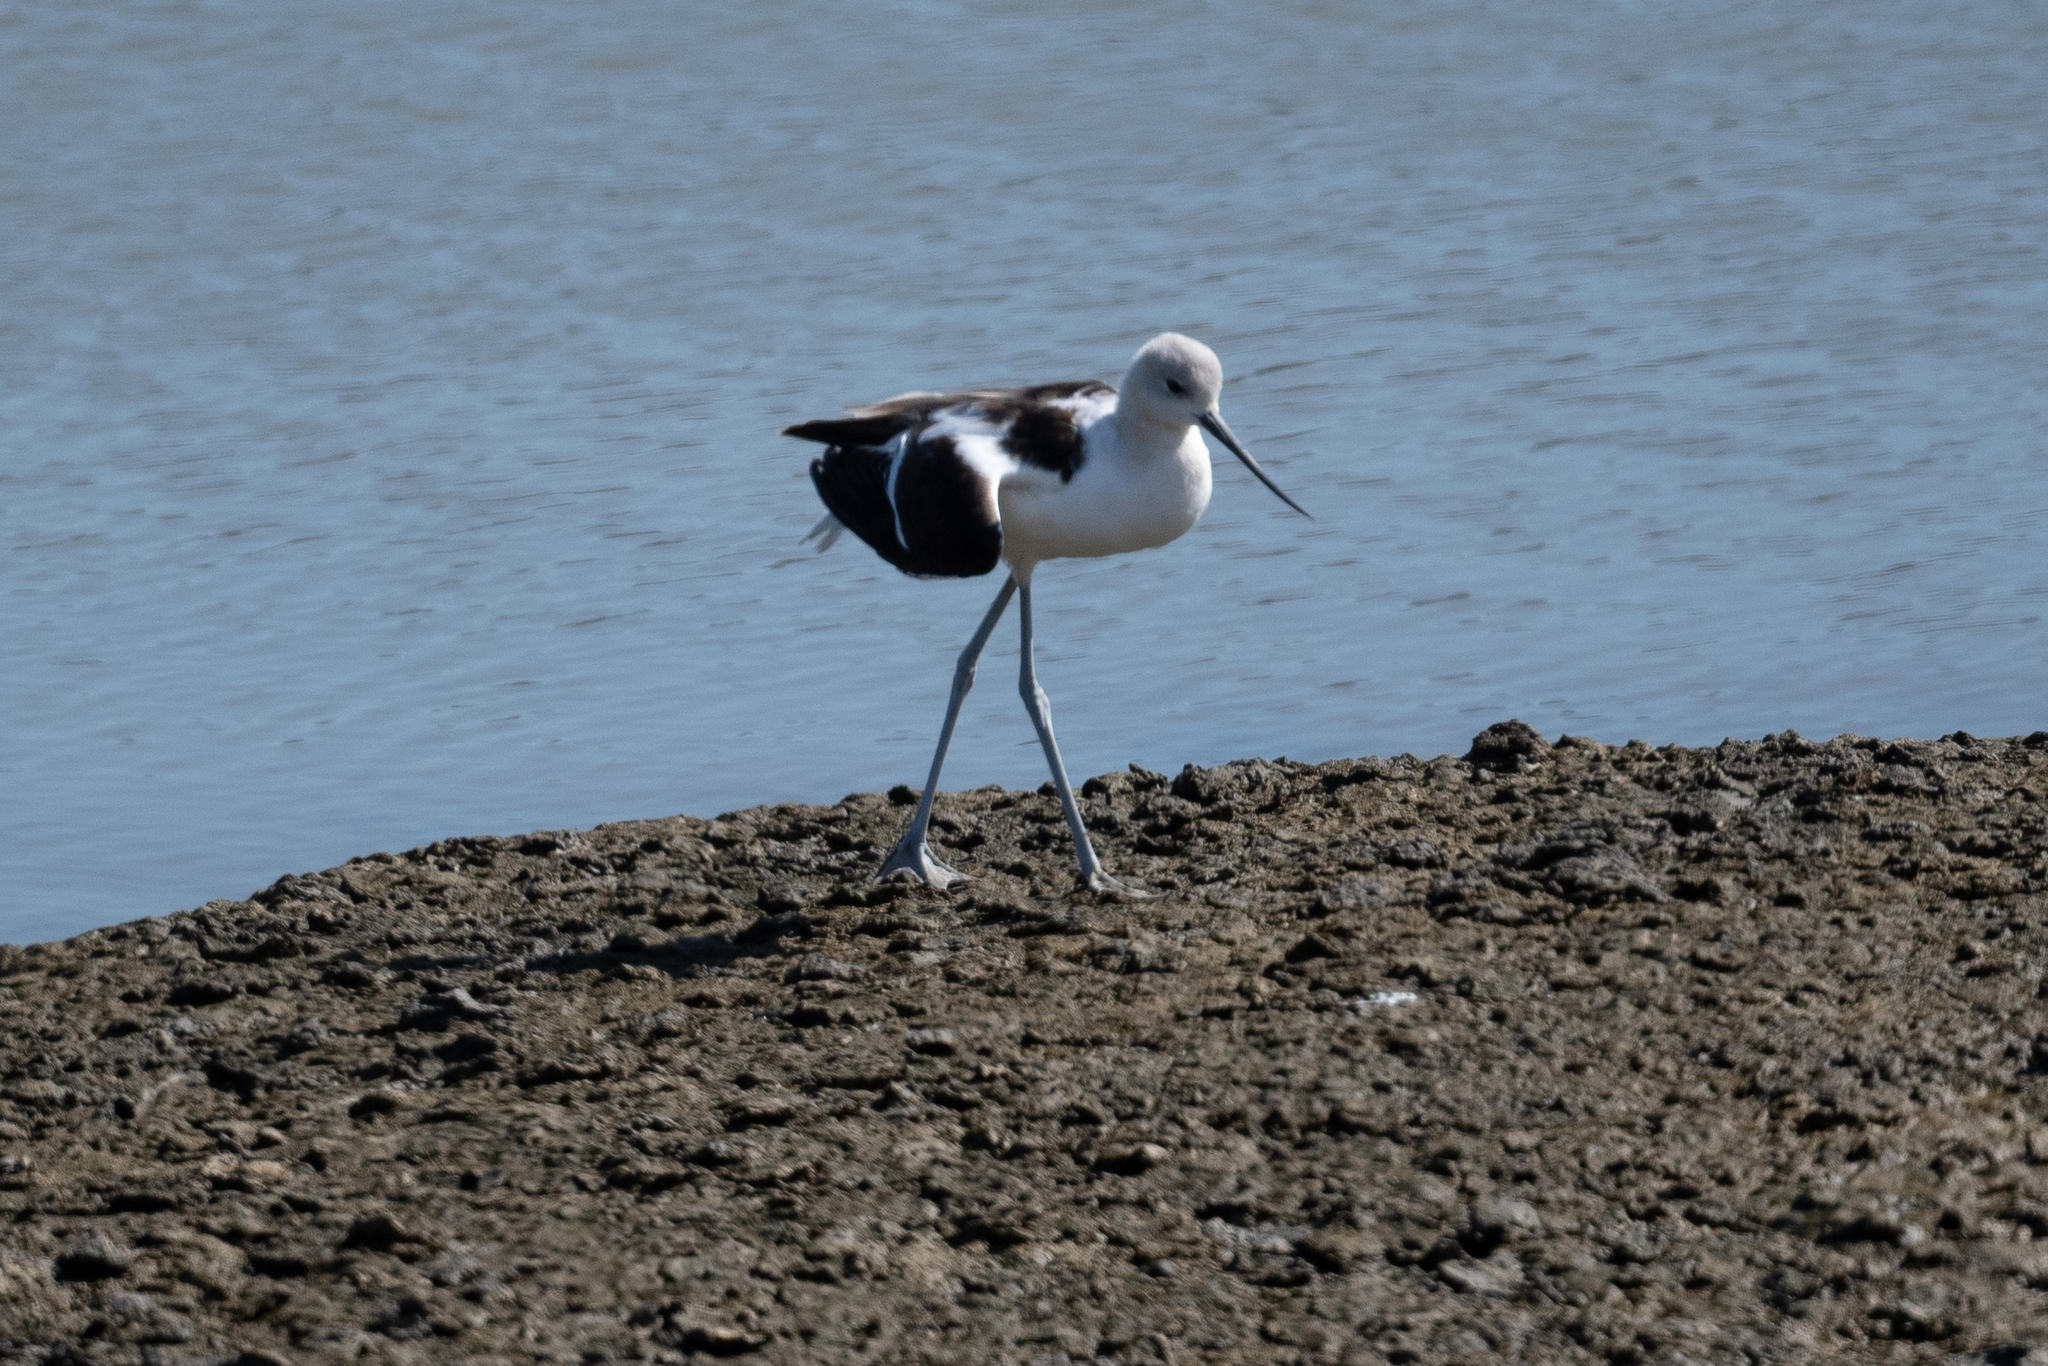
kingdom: Animalia
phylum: Chordata
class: Aves
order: Charadriiformes
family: Recurvirostridae
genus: Recurvirostra
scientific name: Recurvirostra americana
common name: American avocet
